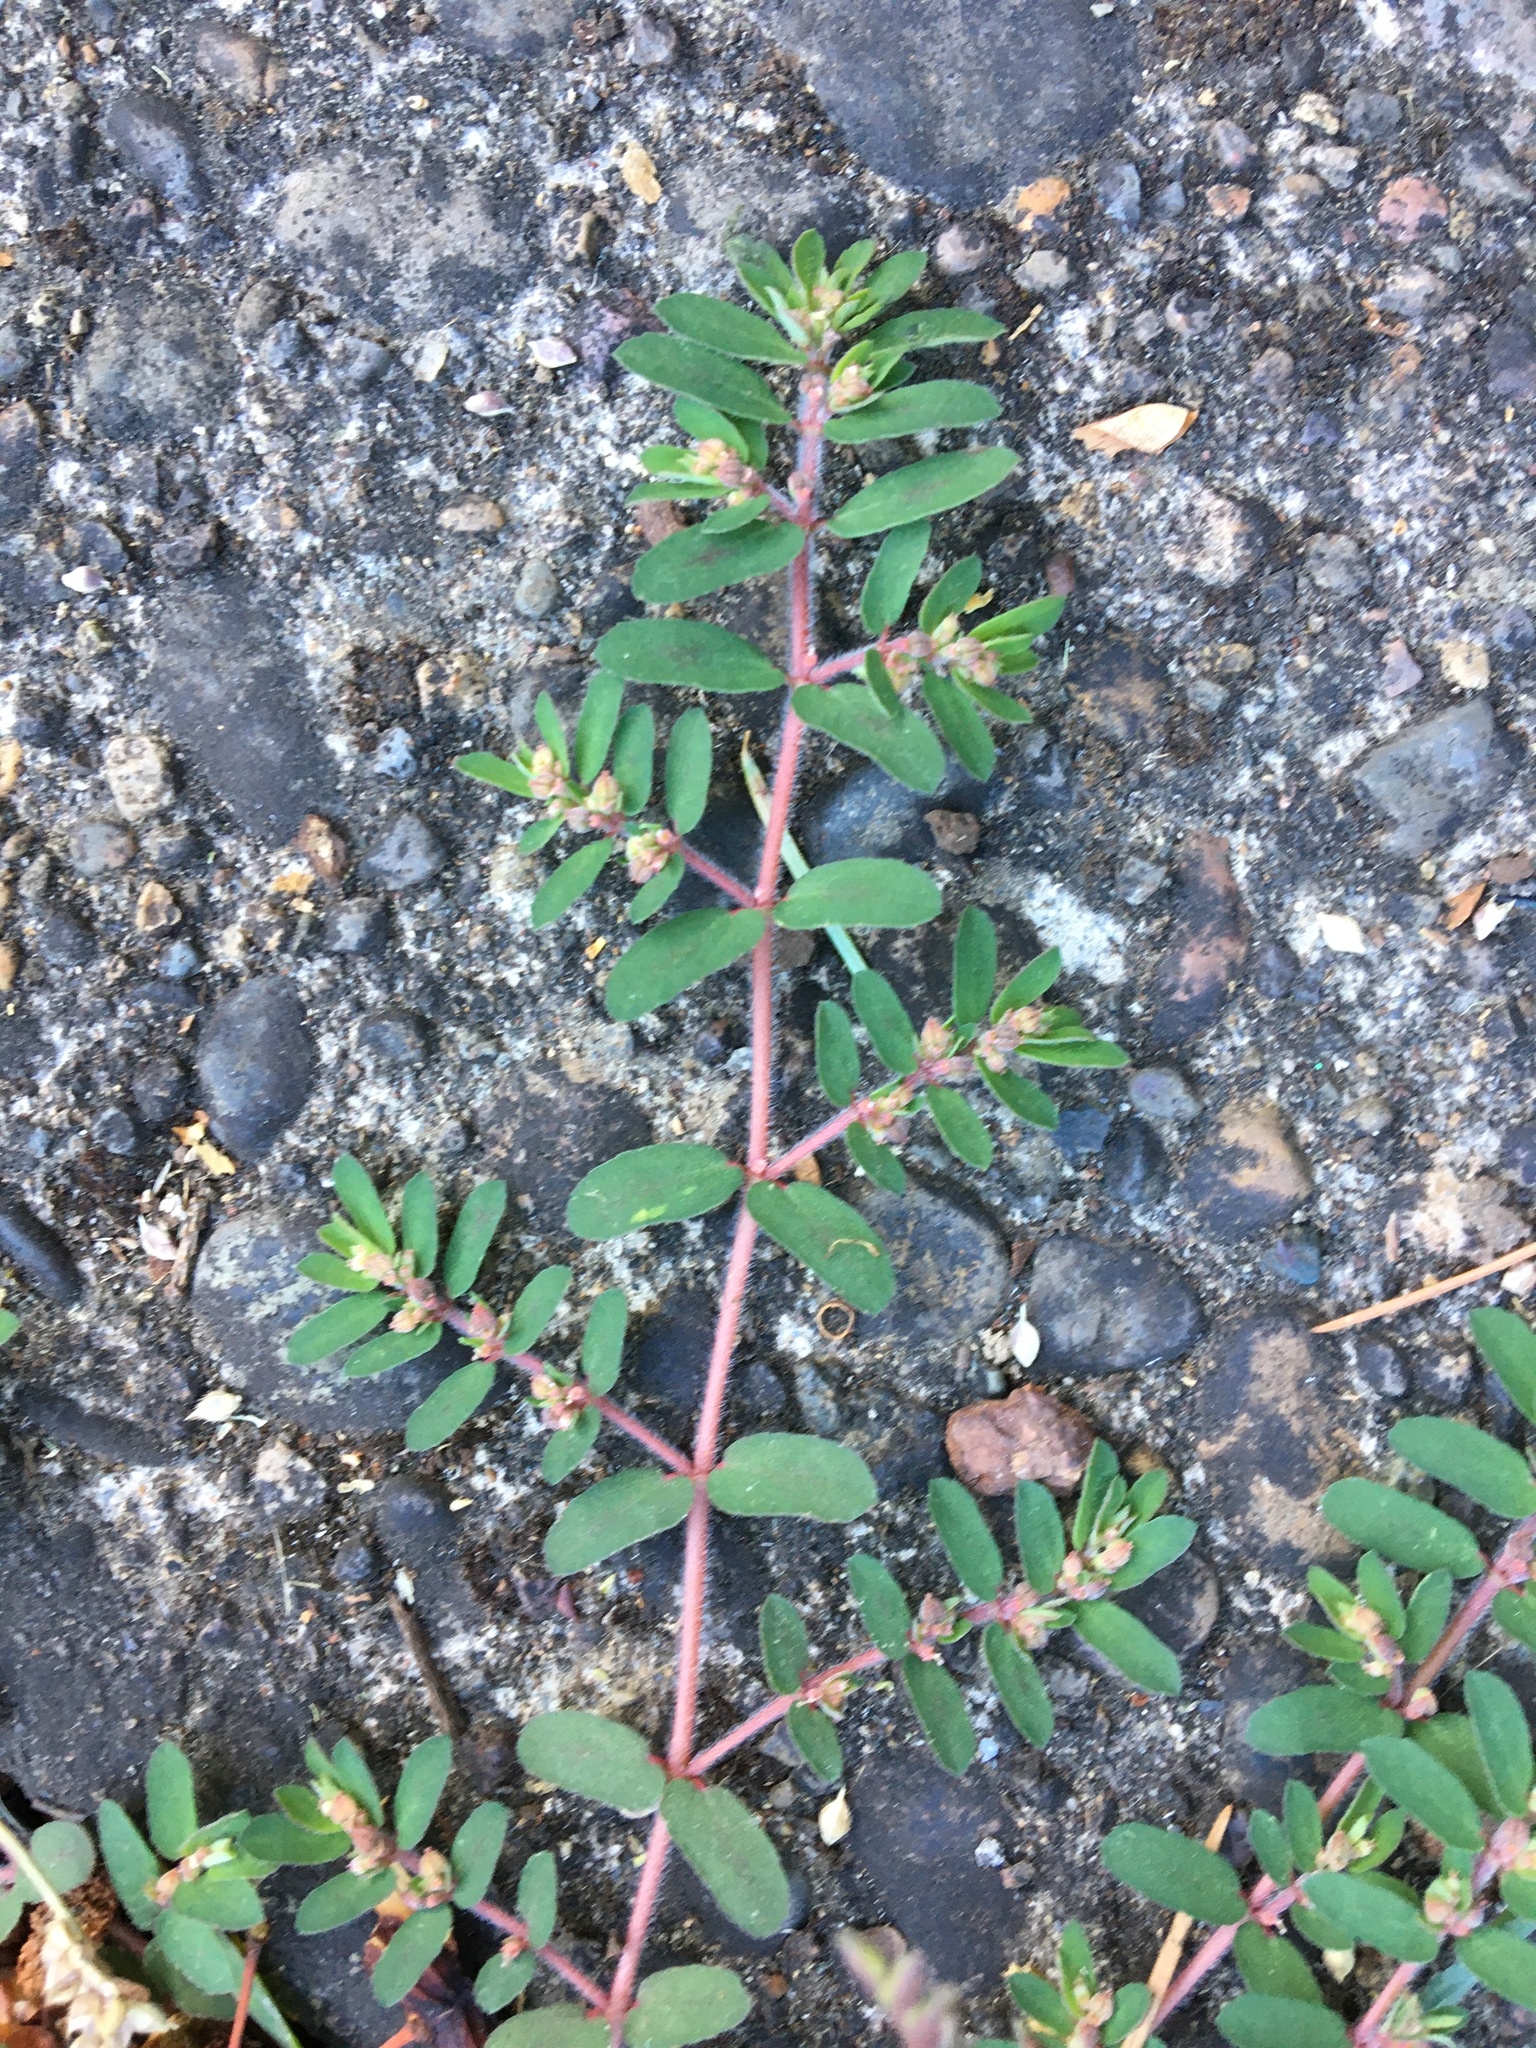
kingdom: Plantae
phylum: Tracheophyta
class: Magnoliopsida
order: Malpighiales
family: Euphorbiaceae
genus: Euphorbia
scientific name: Euphorbia maculata
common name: Spotted spurge
